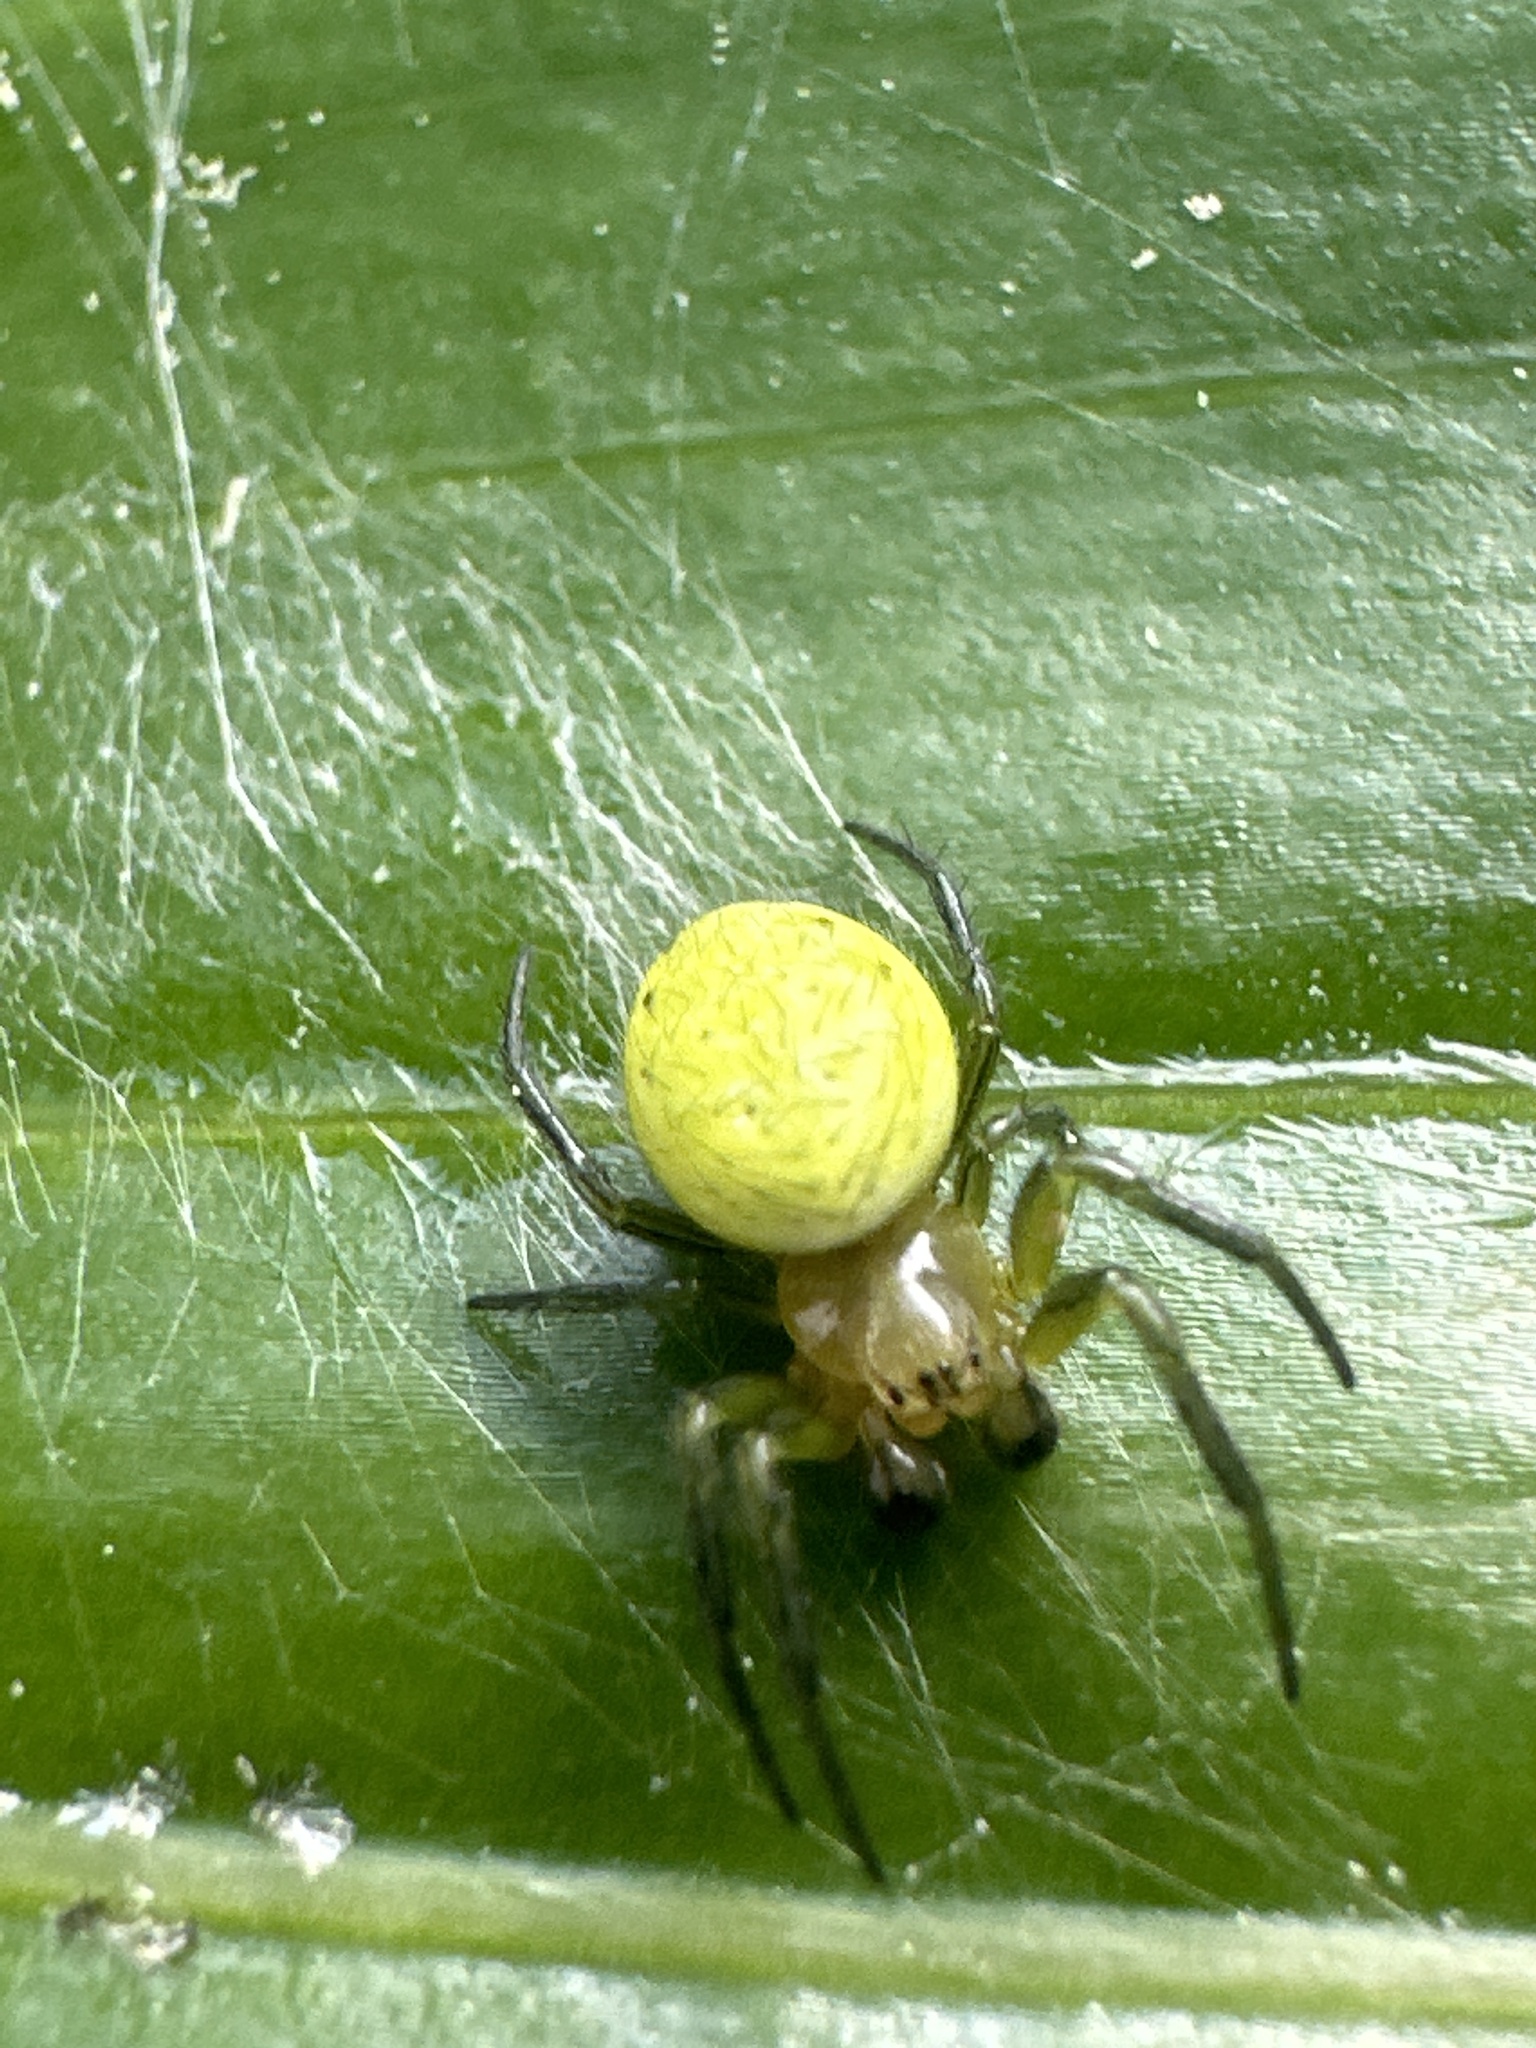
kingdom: Animalia
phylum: Arthropoda
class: Arachnida
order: Araneae
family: Araneidae
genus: Araniella
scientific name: Araniella
